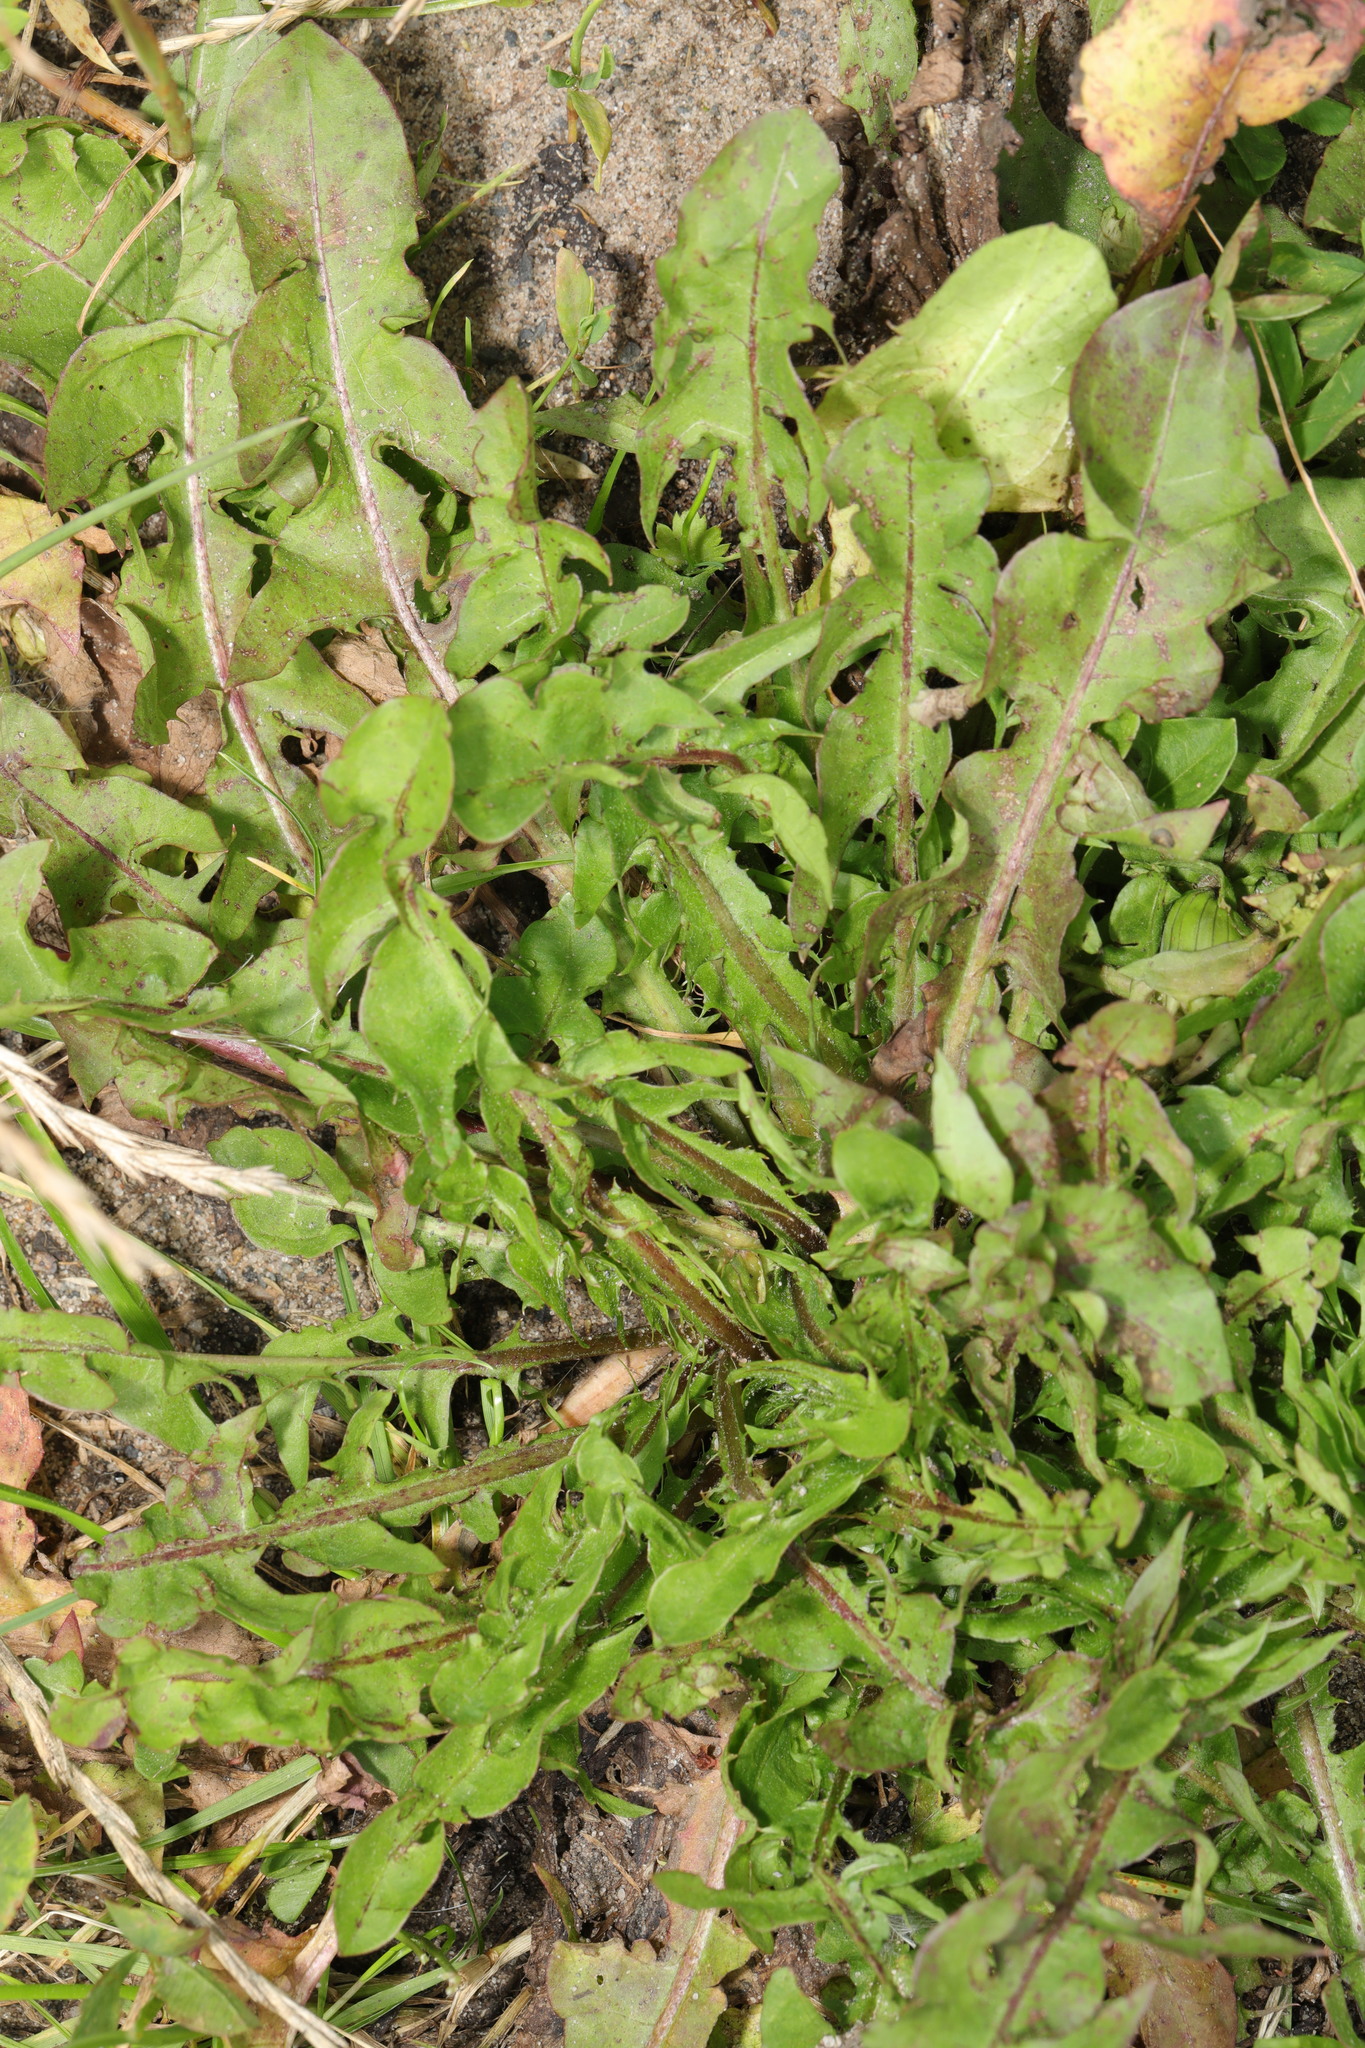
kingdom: Plantae
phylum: Tracheophyta
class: Magnoliopsida
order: Asterales
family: Asteraceae
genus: Taraxacum
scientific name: Taraxacum officinale
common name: Common dandelion
